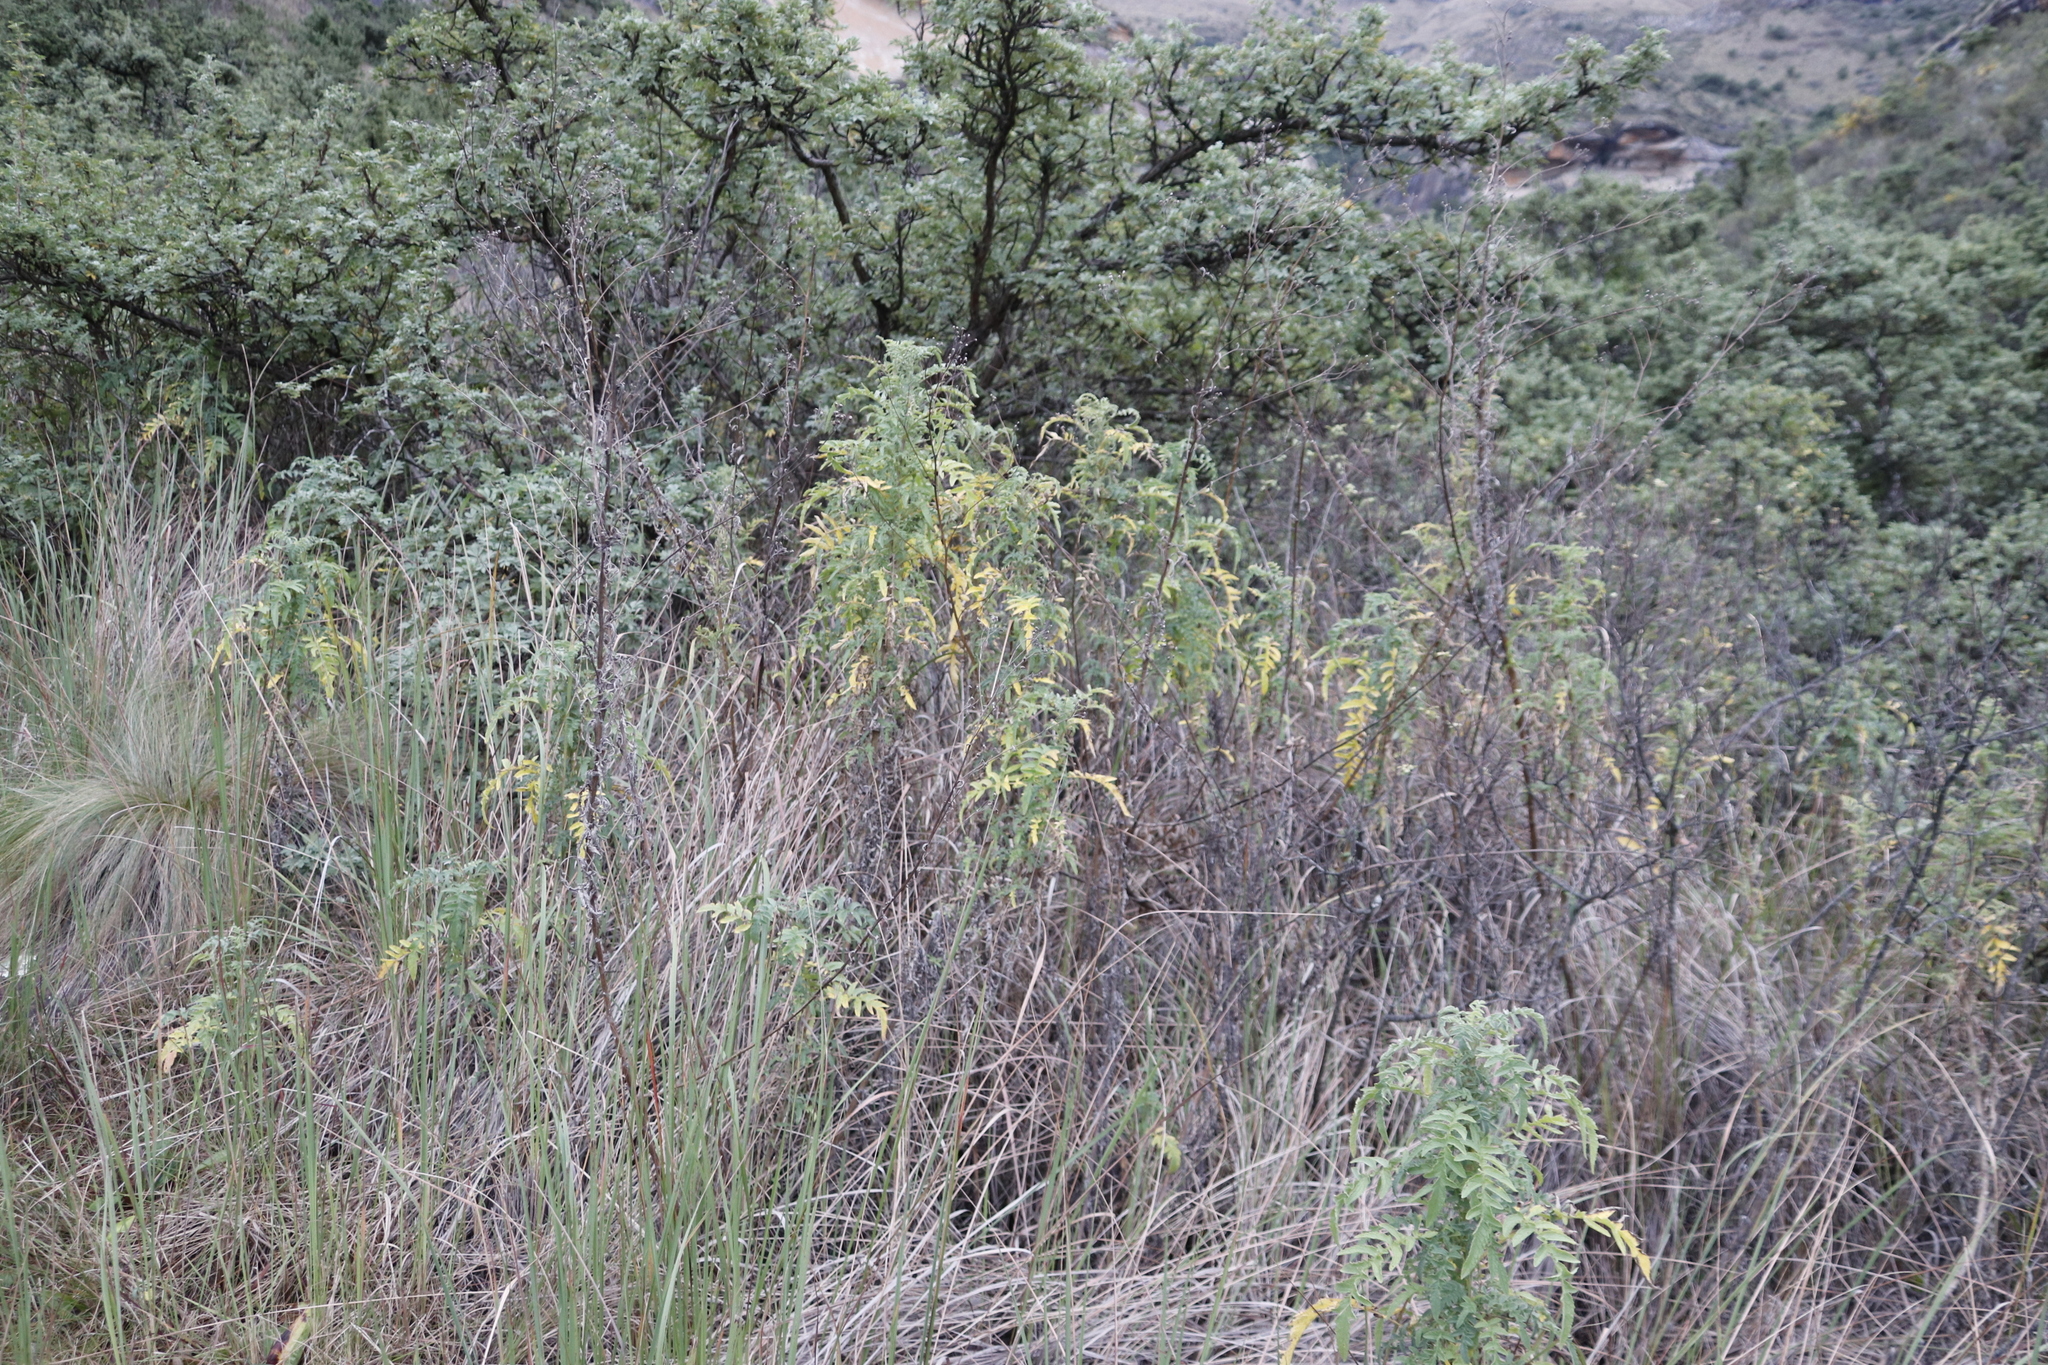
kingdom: Plantae
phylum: Tracheophyta
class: Magnoliopsida
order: Asterales
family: Asteraceae
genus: Heteromma
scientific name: Heteromma decurrens
